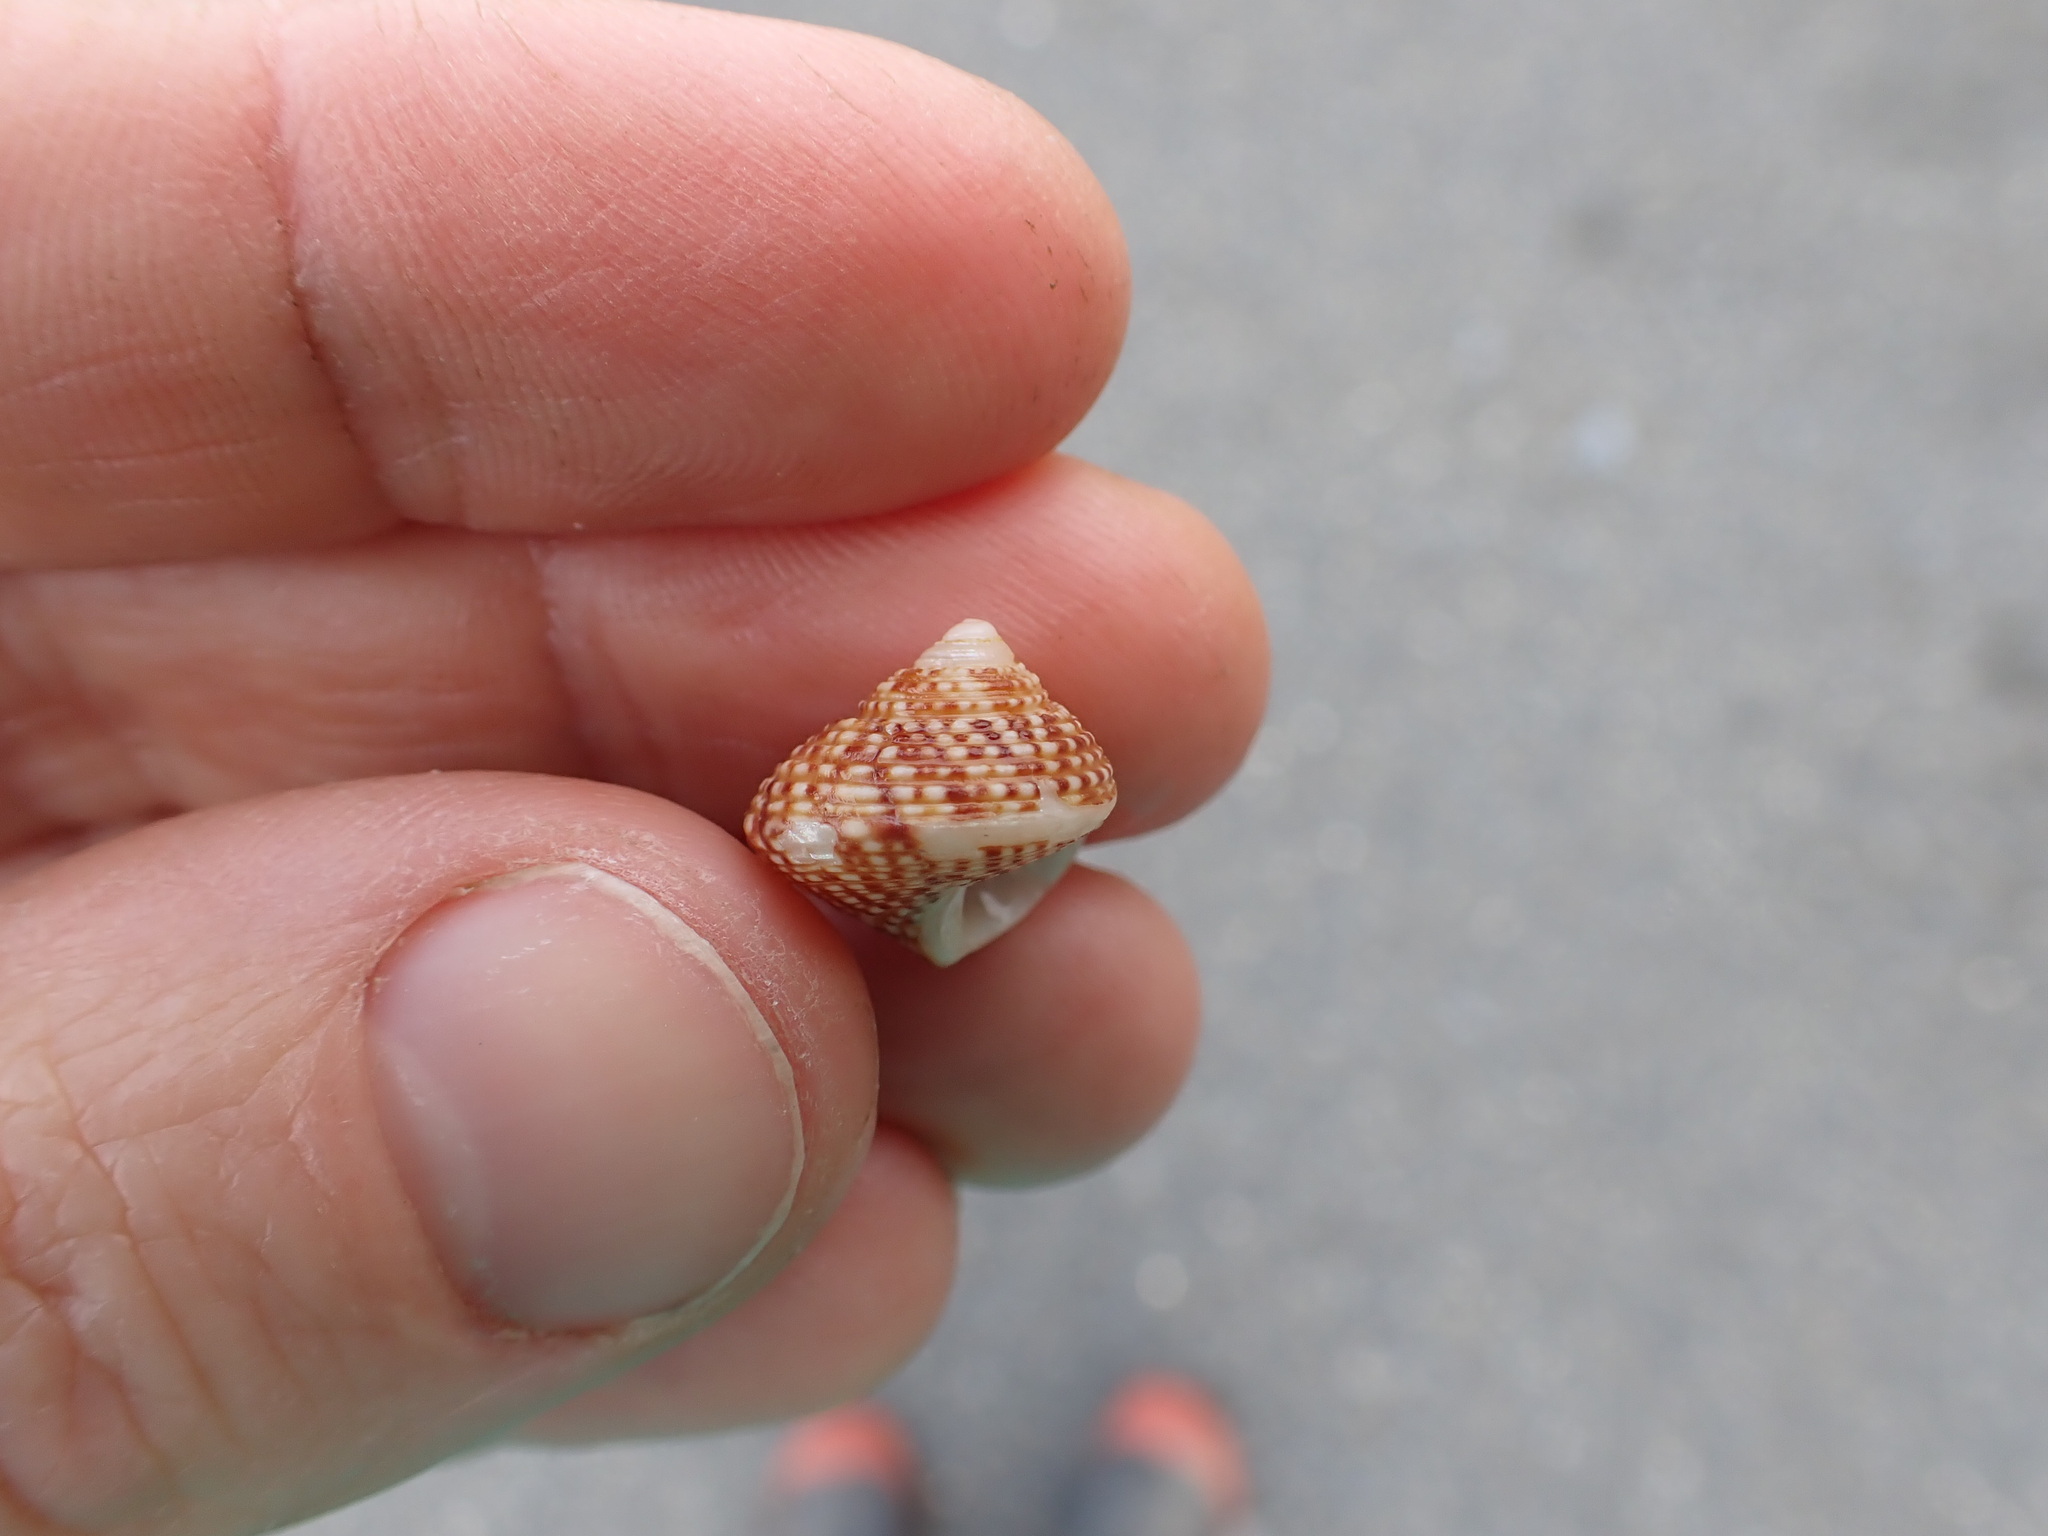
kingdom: Animalia
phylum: Mollusca
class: Gastropoda
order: Trochida
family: Calliostomatidae
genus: Maurea
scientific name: Maurea punctulata
